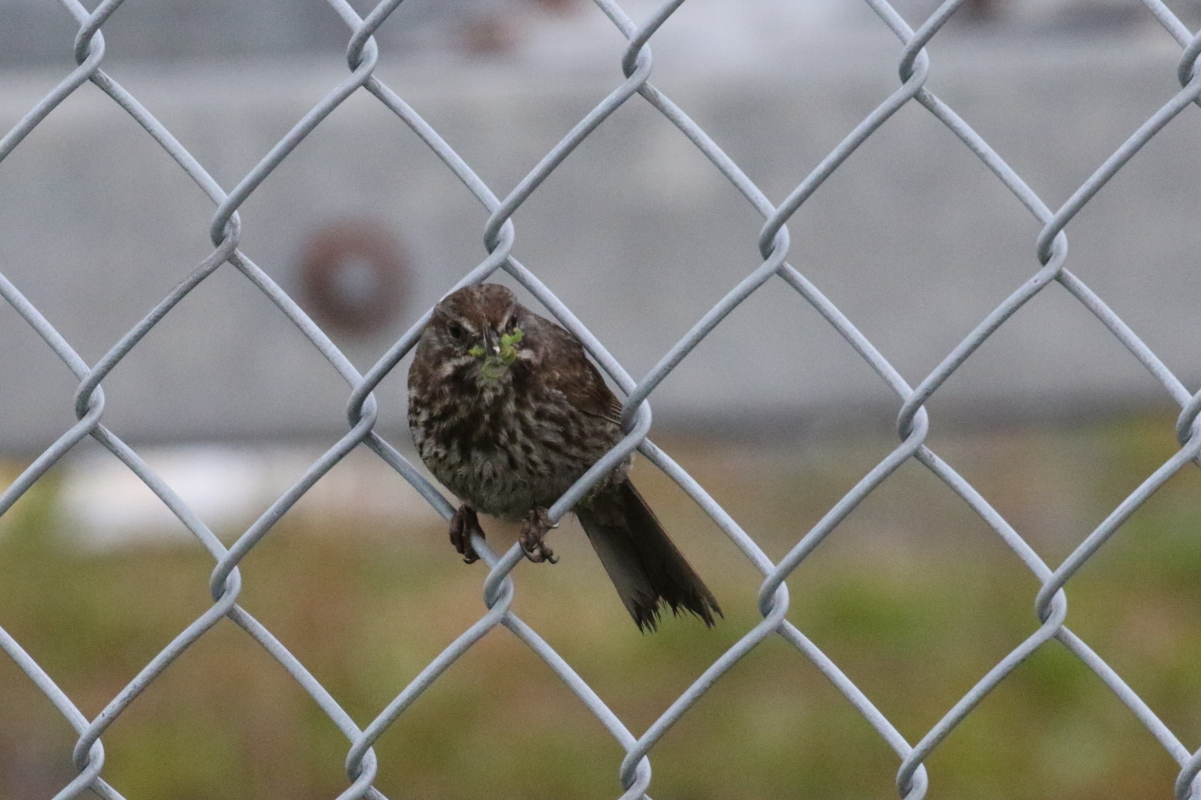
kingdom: Animalia
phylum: Chordata
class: Aves
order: Passeriformes
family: Passerellidae
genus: Melospiza
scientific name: Melospiza melodia
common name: Song sparrow
